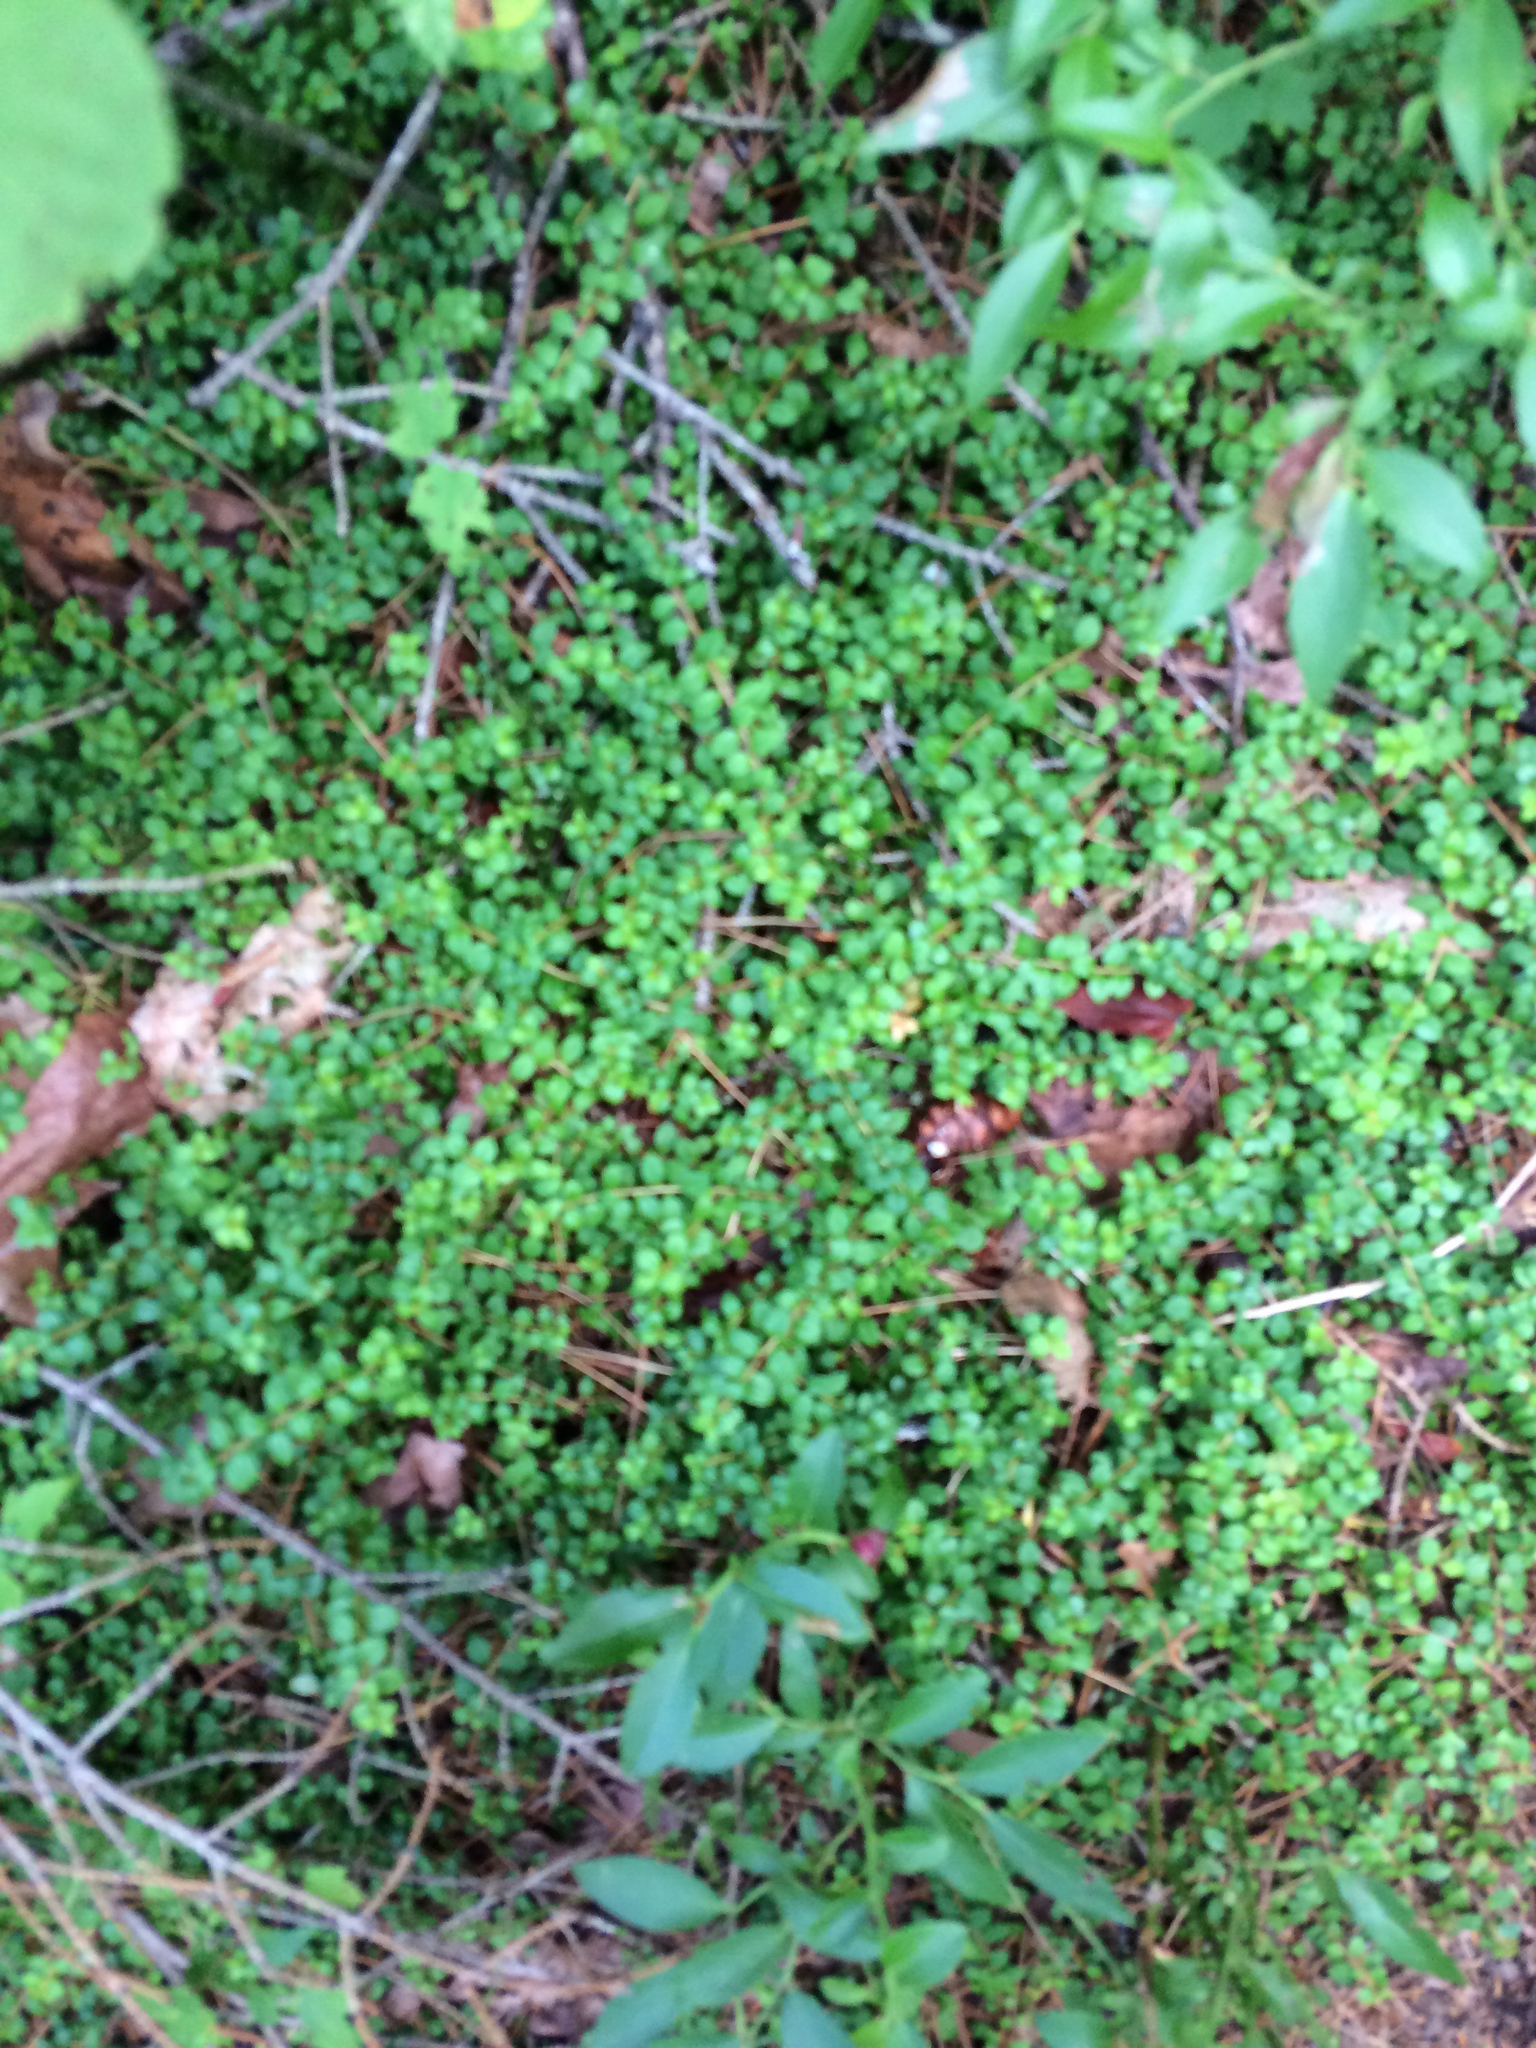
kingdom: Plantae
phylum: Tracheophyta
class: Magnoliopsida
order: Ericales
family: Ericaceae
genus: Gaultheria
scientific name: Gaultheria hispidula
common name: Cancer wintergreen
